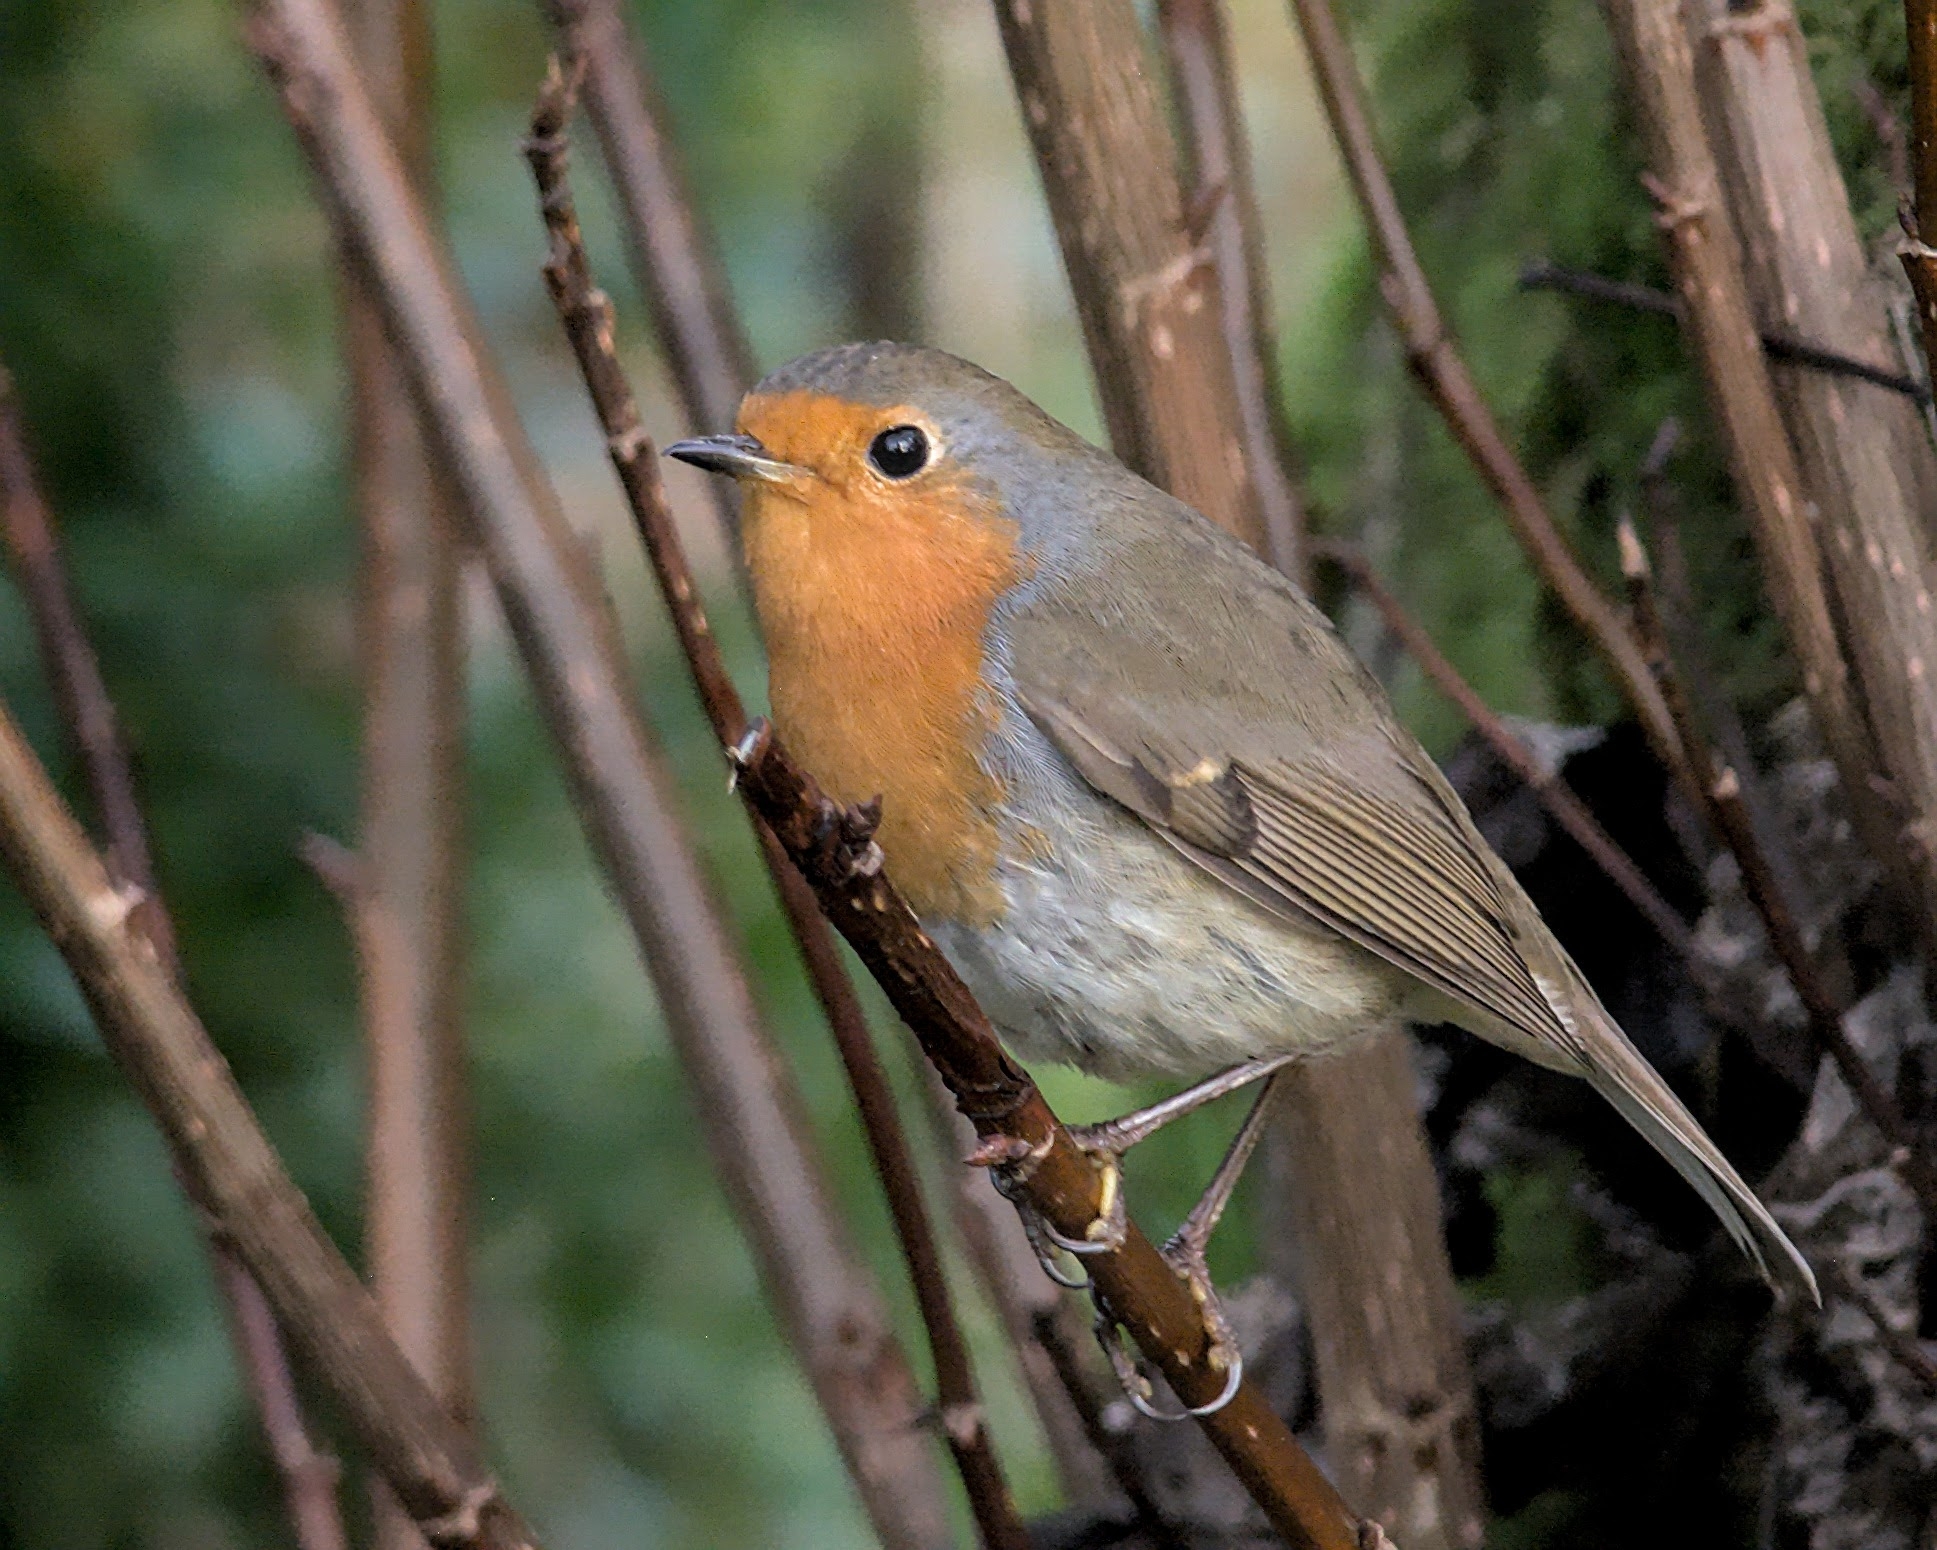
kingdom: Animalia
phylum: Chordata
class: Aves
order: Passeriformes
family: Muscicapidae
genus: Erithacus
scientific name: Erithacus rubecula
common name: European robin
